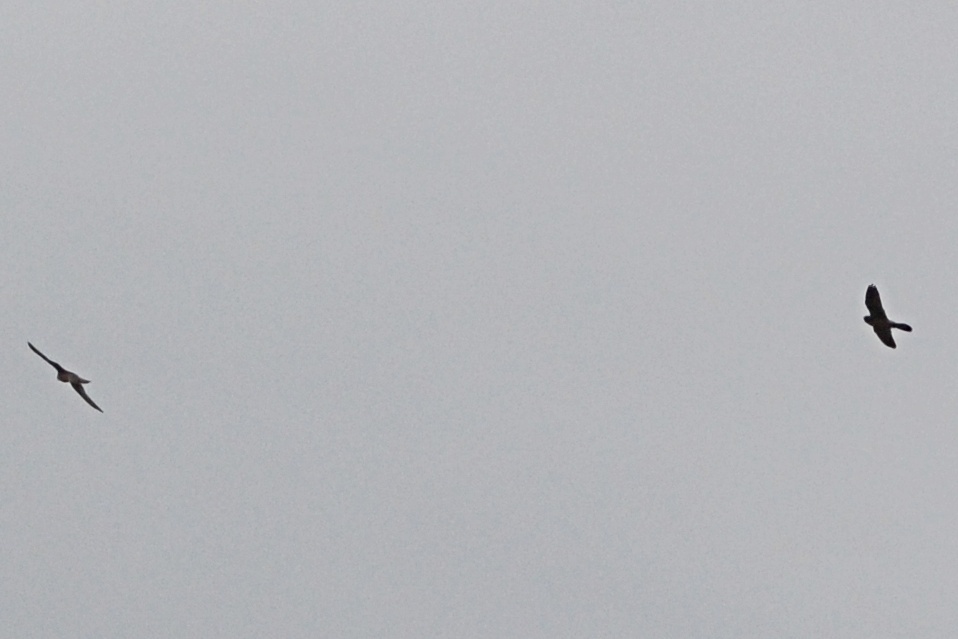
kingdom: Animalia
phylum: Chordata
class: Aves
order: Falconiformes
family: Falconidae
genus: Falco
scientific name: Falco tinnunculus
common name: Common kestrel
